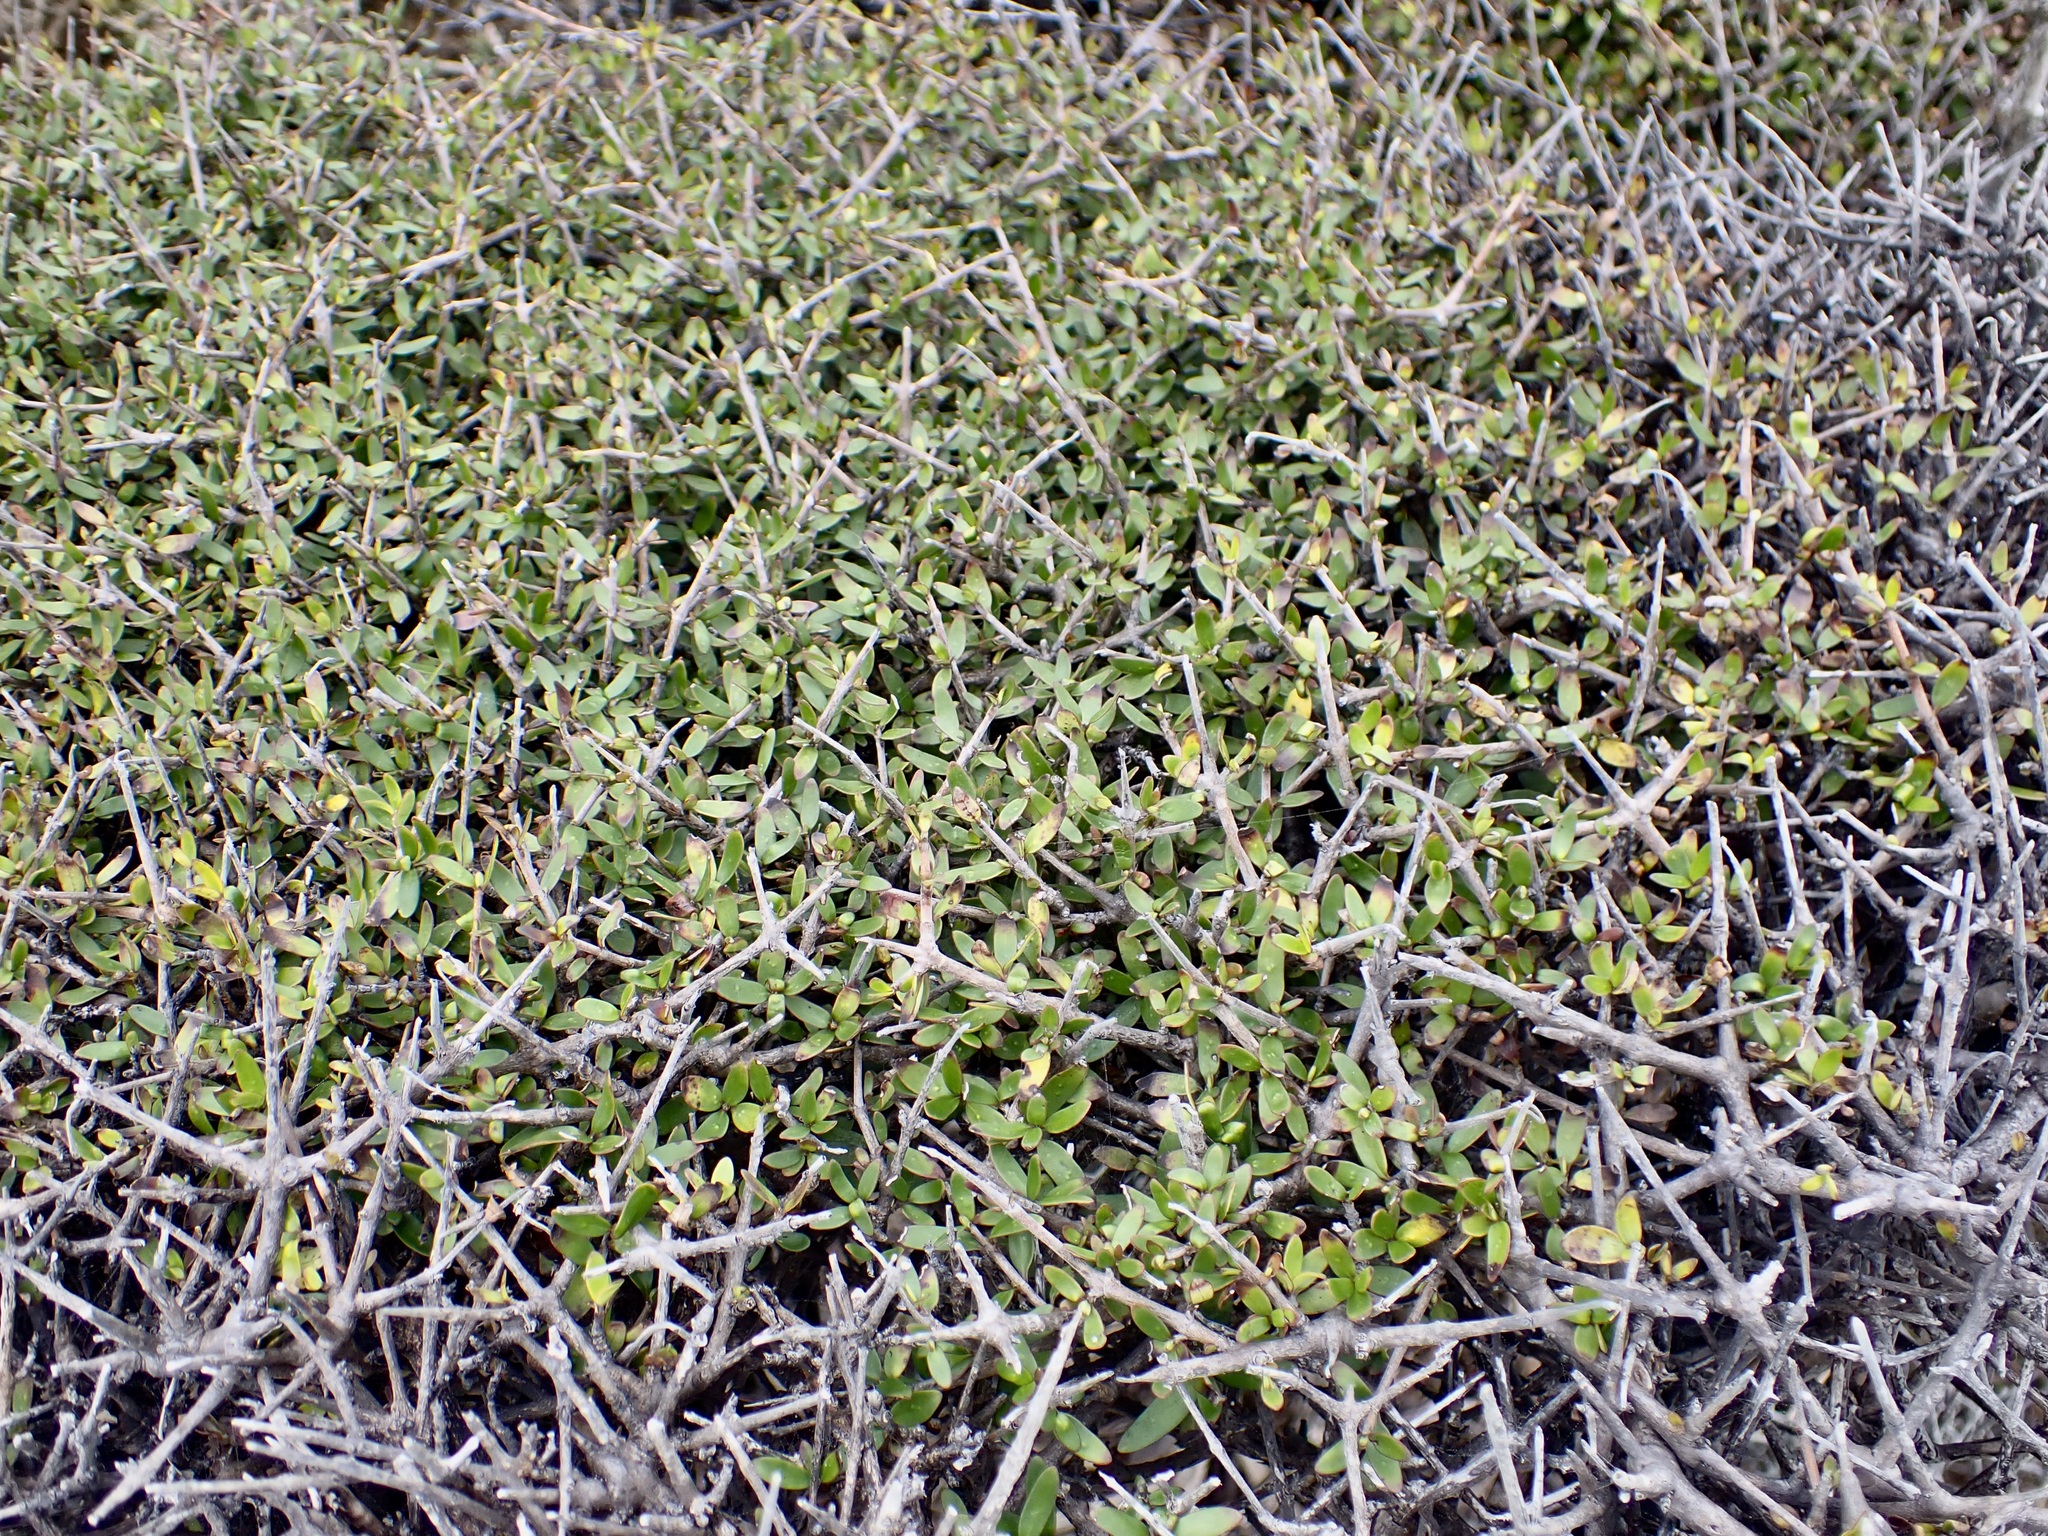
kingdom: Plantae
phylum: Tracheophyta
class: Magnoliopsida
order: Gentianales
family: Rubiaceae
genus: Coprosma
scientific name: Coprosma propinqua
